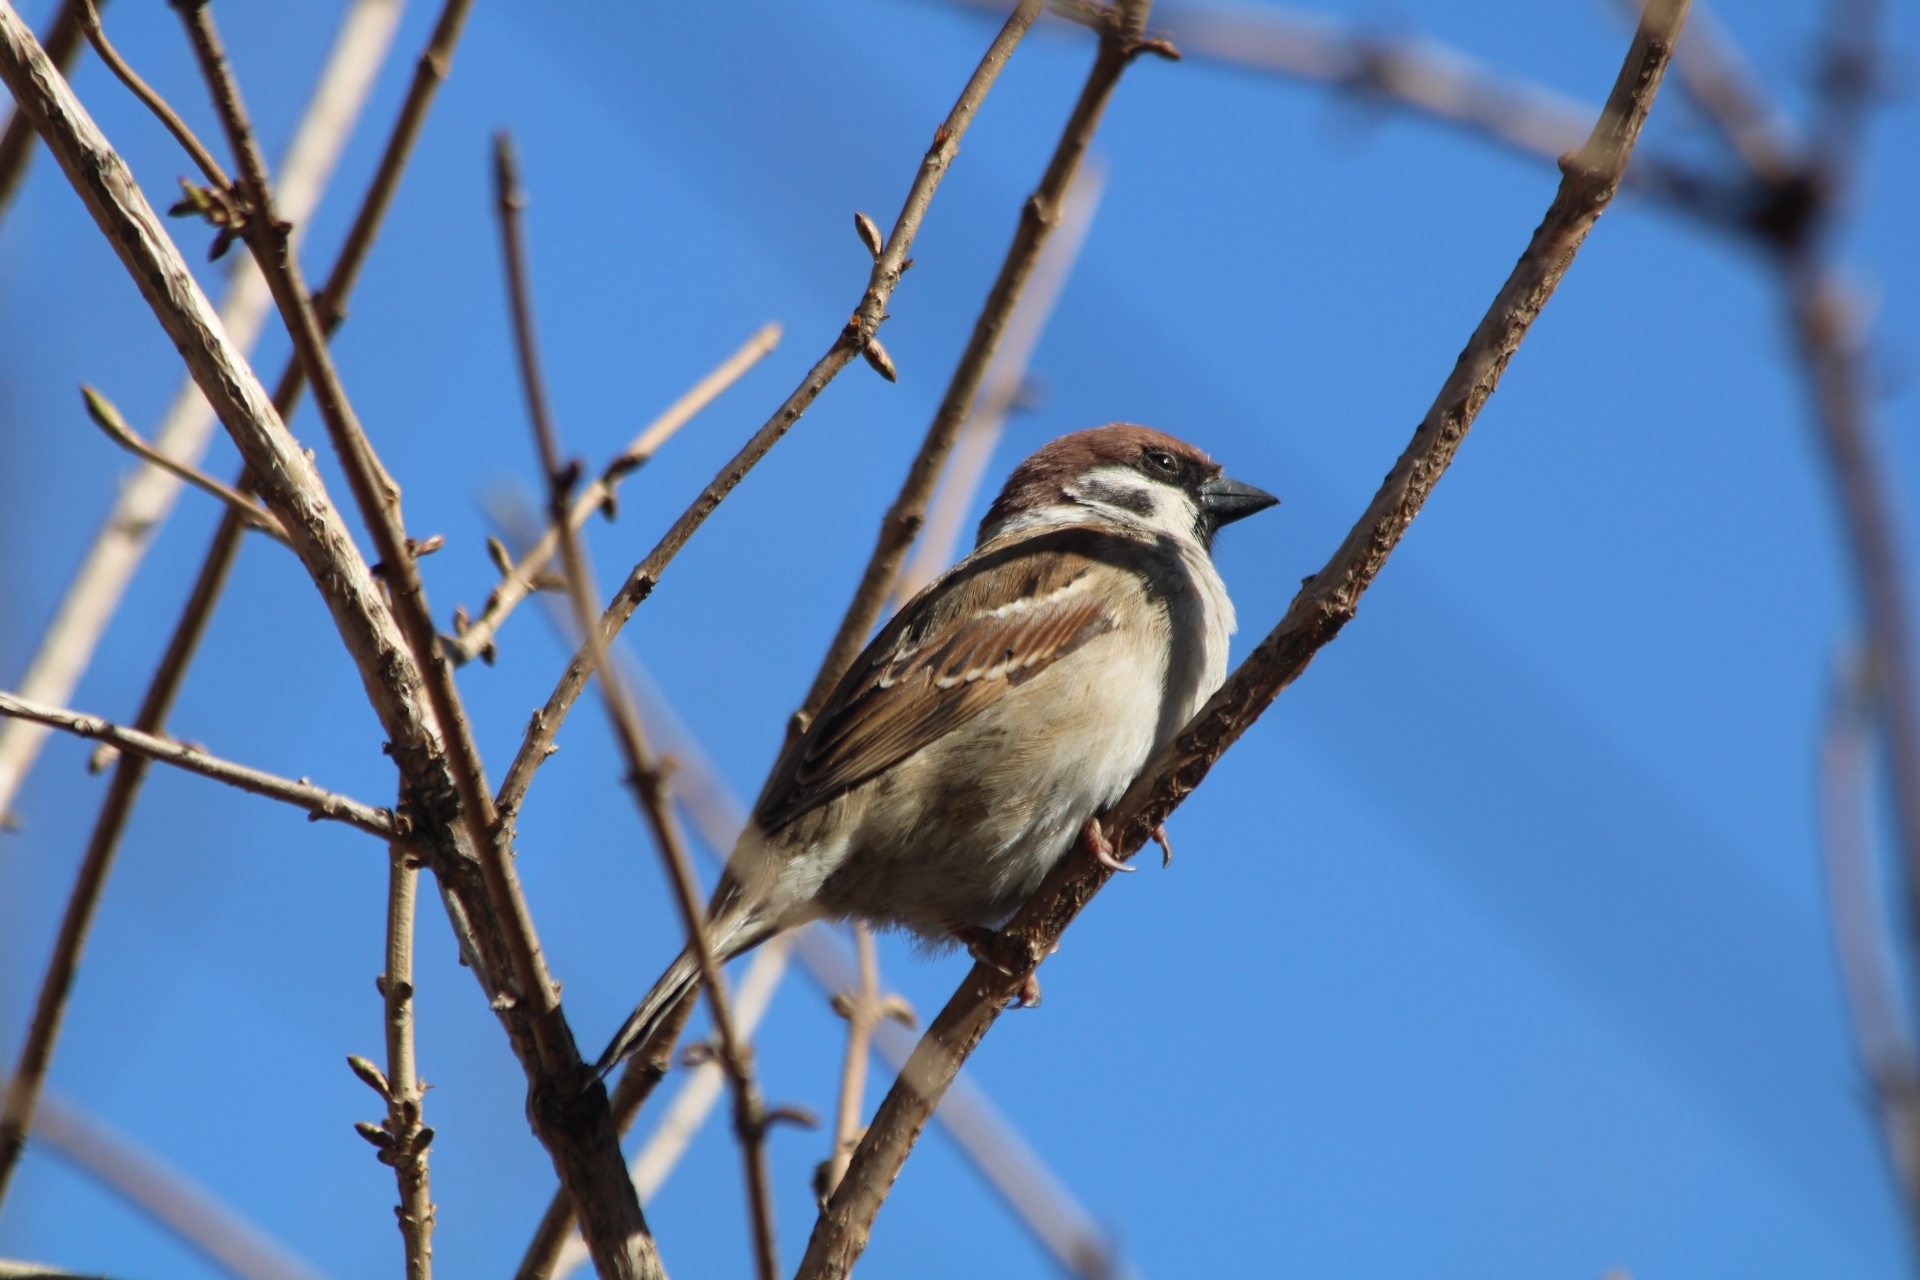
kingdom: Animalia
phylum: Chordata
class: Aves
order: Passeriformes
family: Passeridae
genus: Passer
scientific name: Passer montanus
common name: Eurasian tree sparrow
